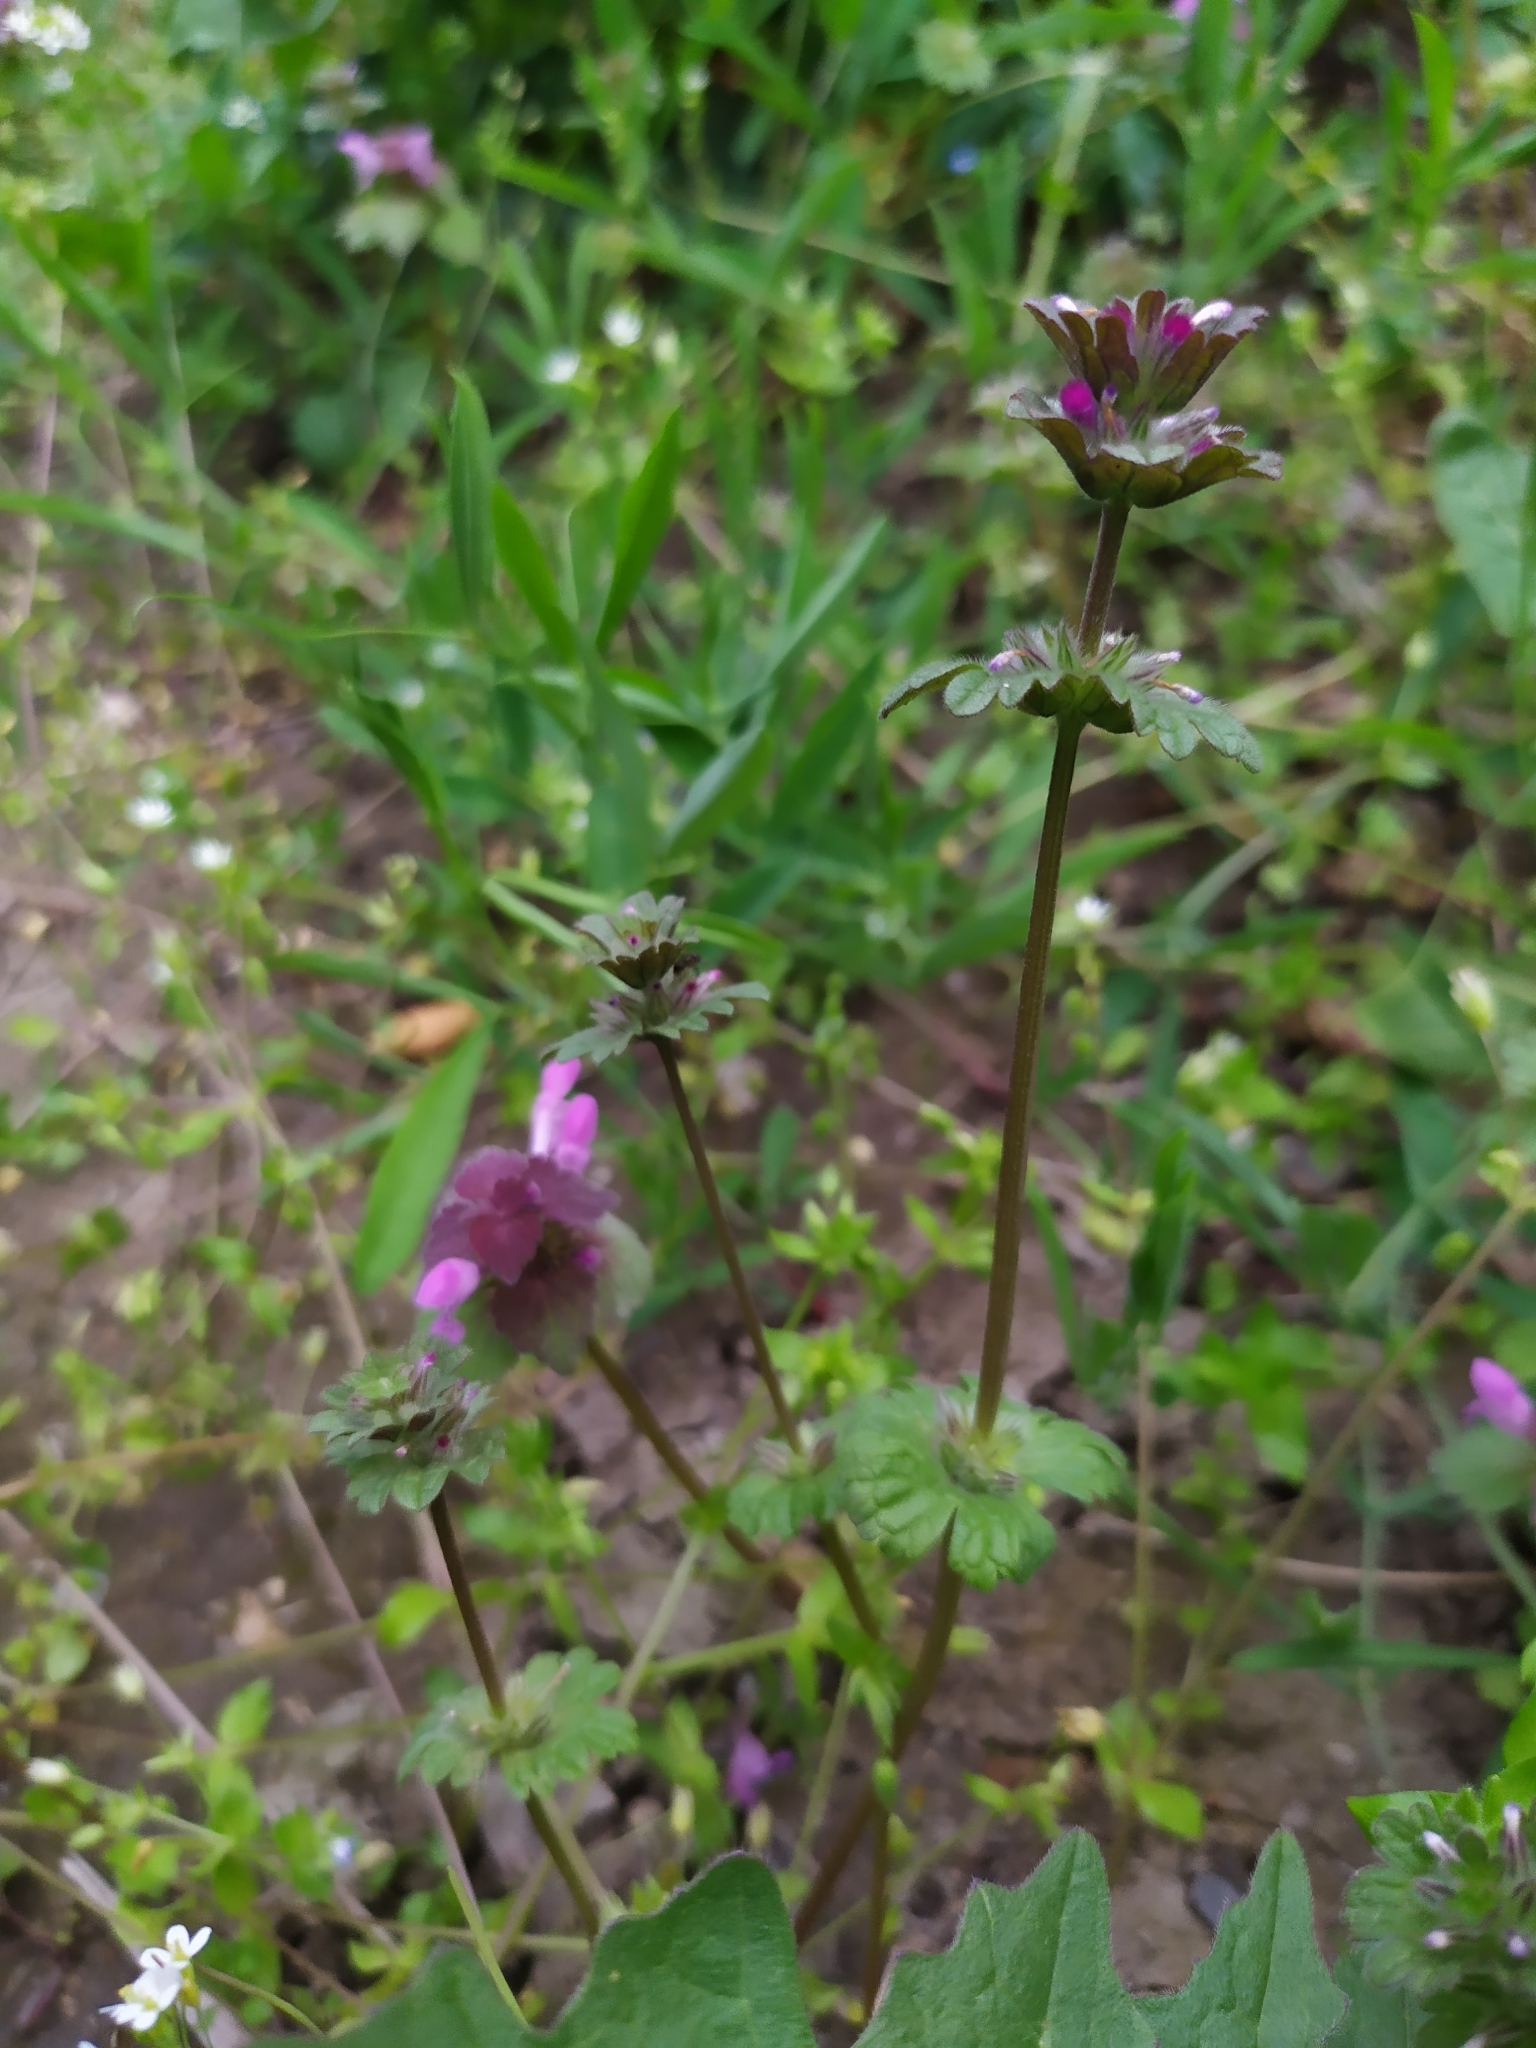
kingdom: Plantae
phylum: Tracheophyta
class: Magnoliopsida
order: Lamiales
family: Lamiaceae
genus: Lamium
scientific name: Lamium amplexicaule
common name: Henbit dead-nettle
